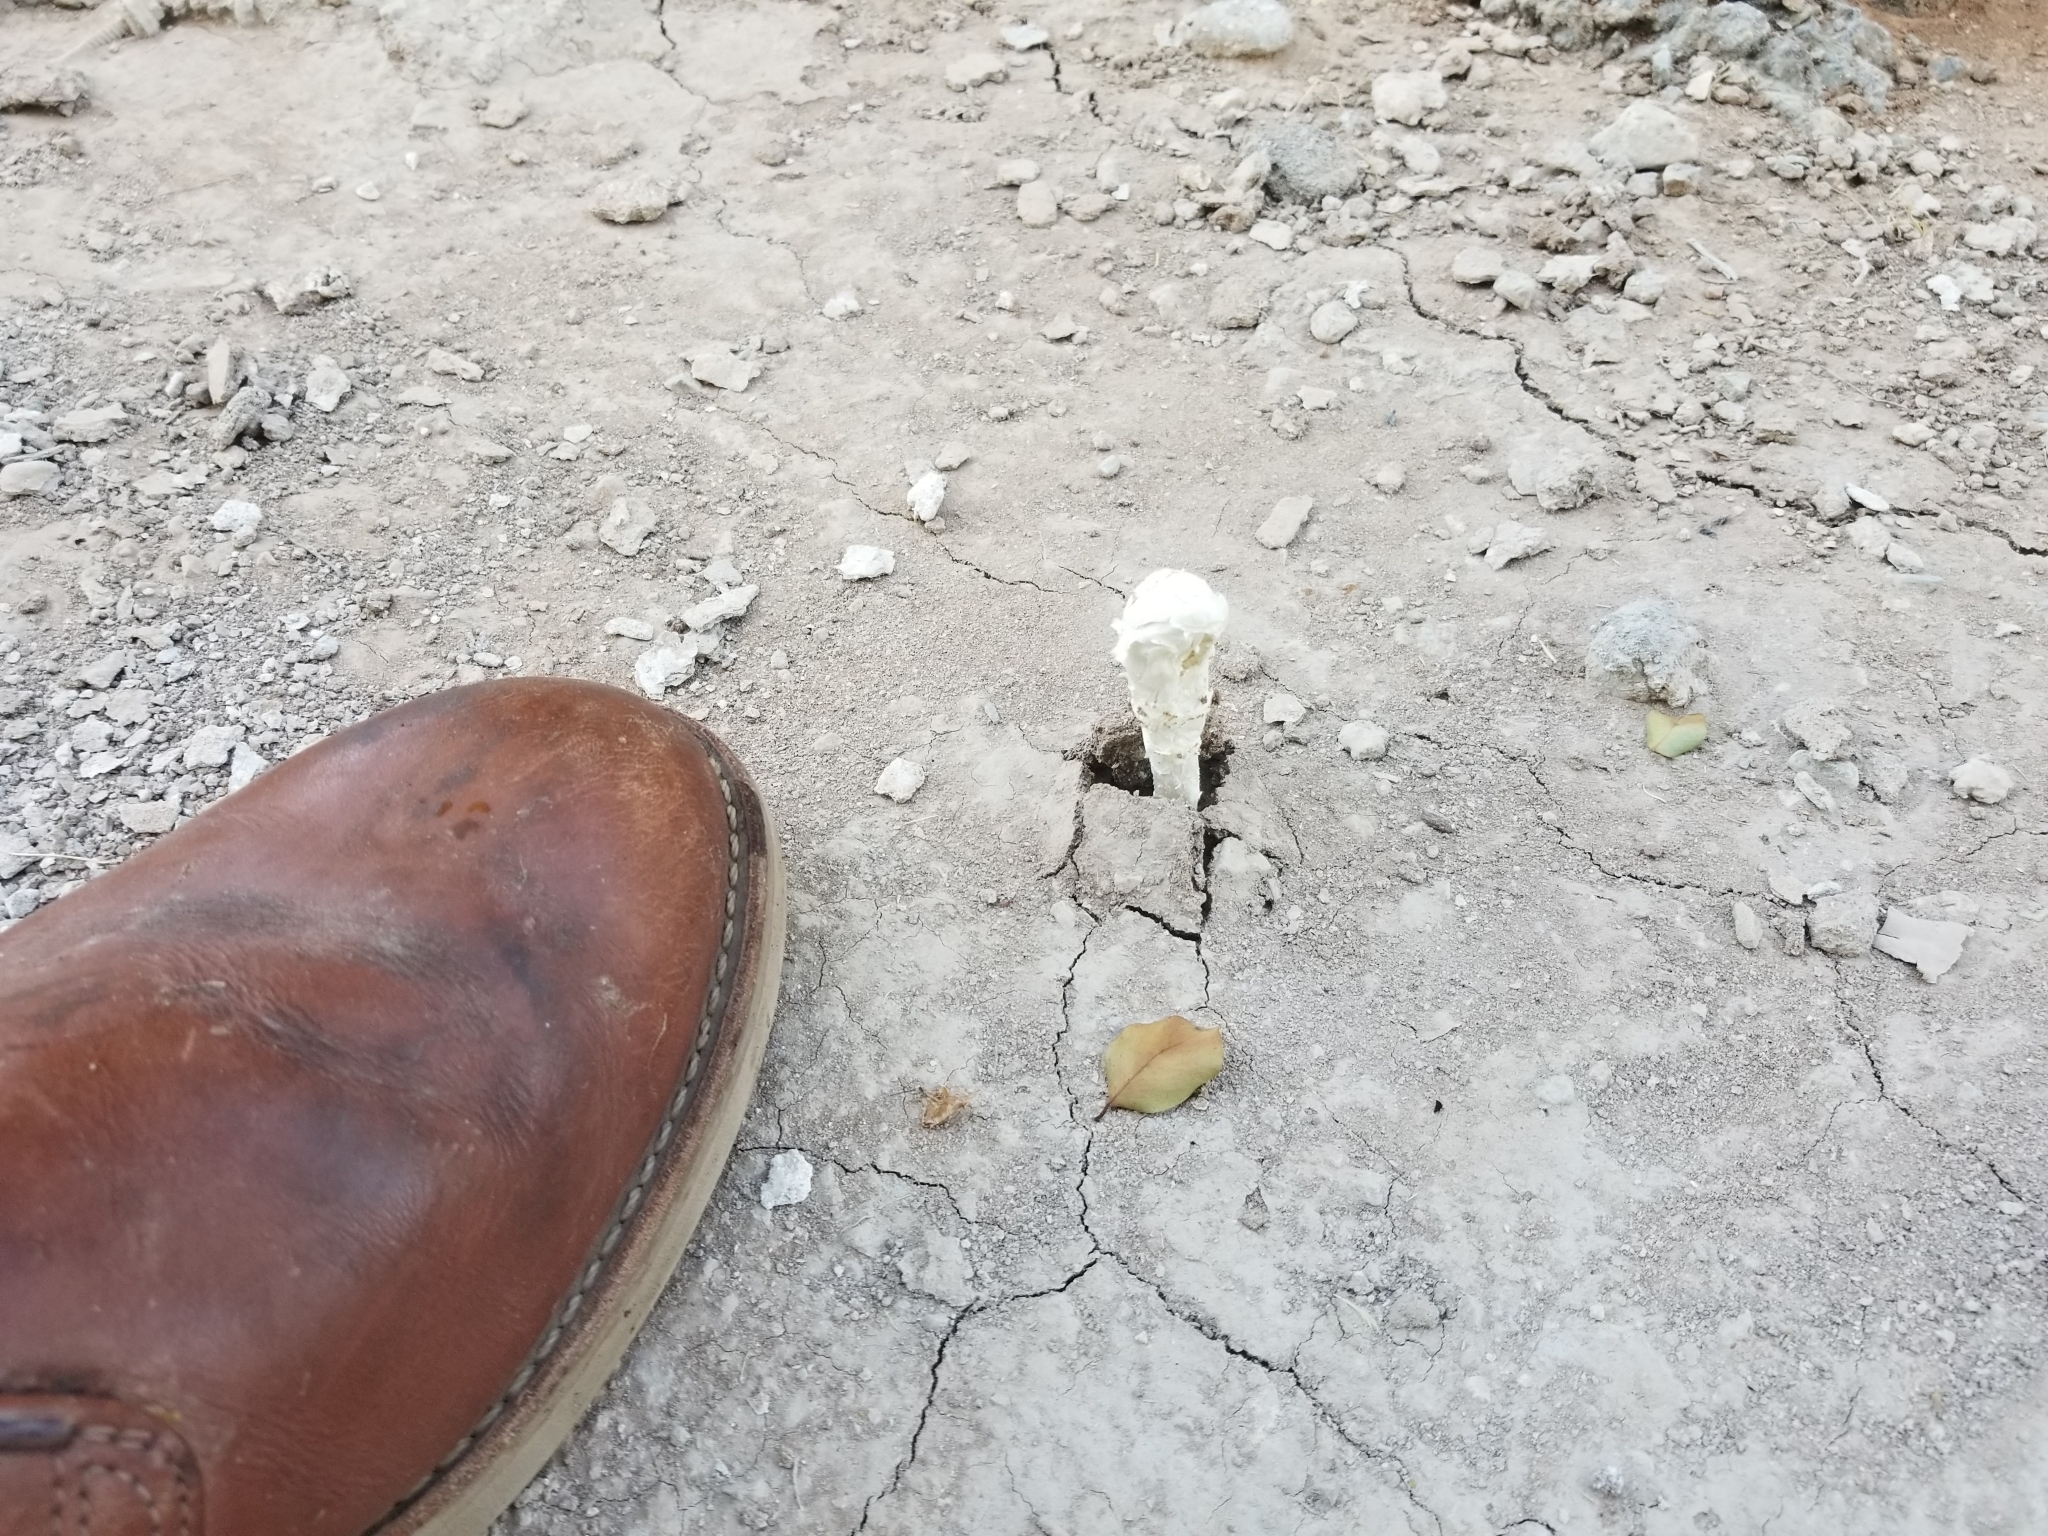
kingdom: Fungi
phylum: Basidiomycota
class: Agaricomycetes
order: Agaricales
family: Agaricaceae
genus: Podaxis
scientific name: Podaxis pistillaris
